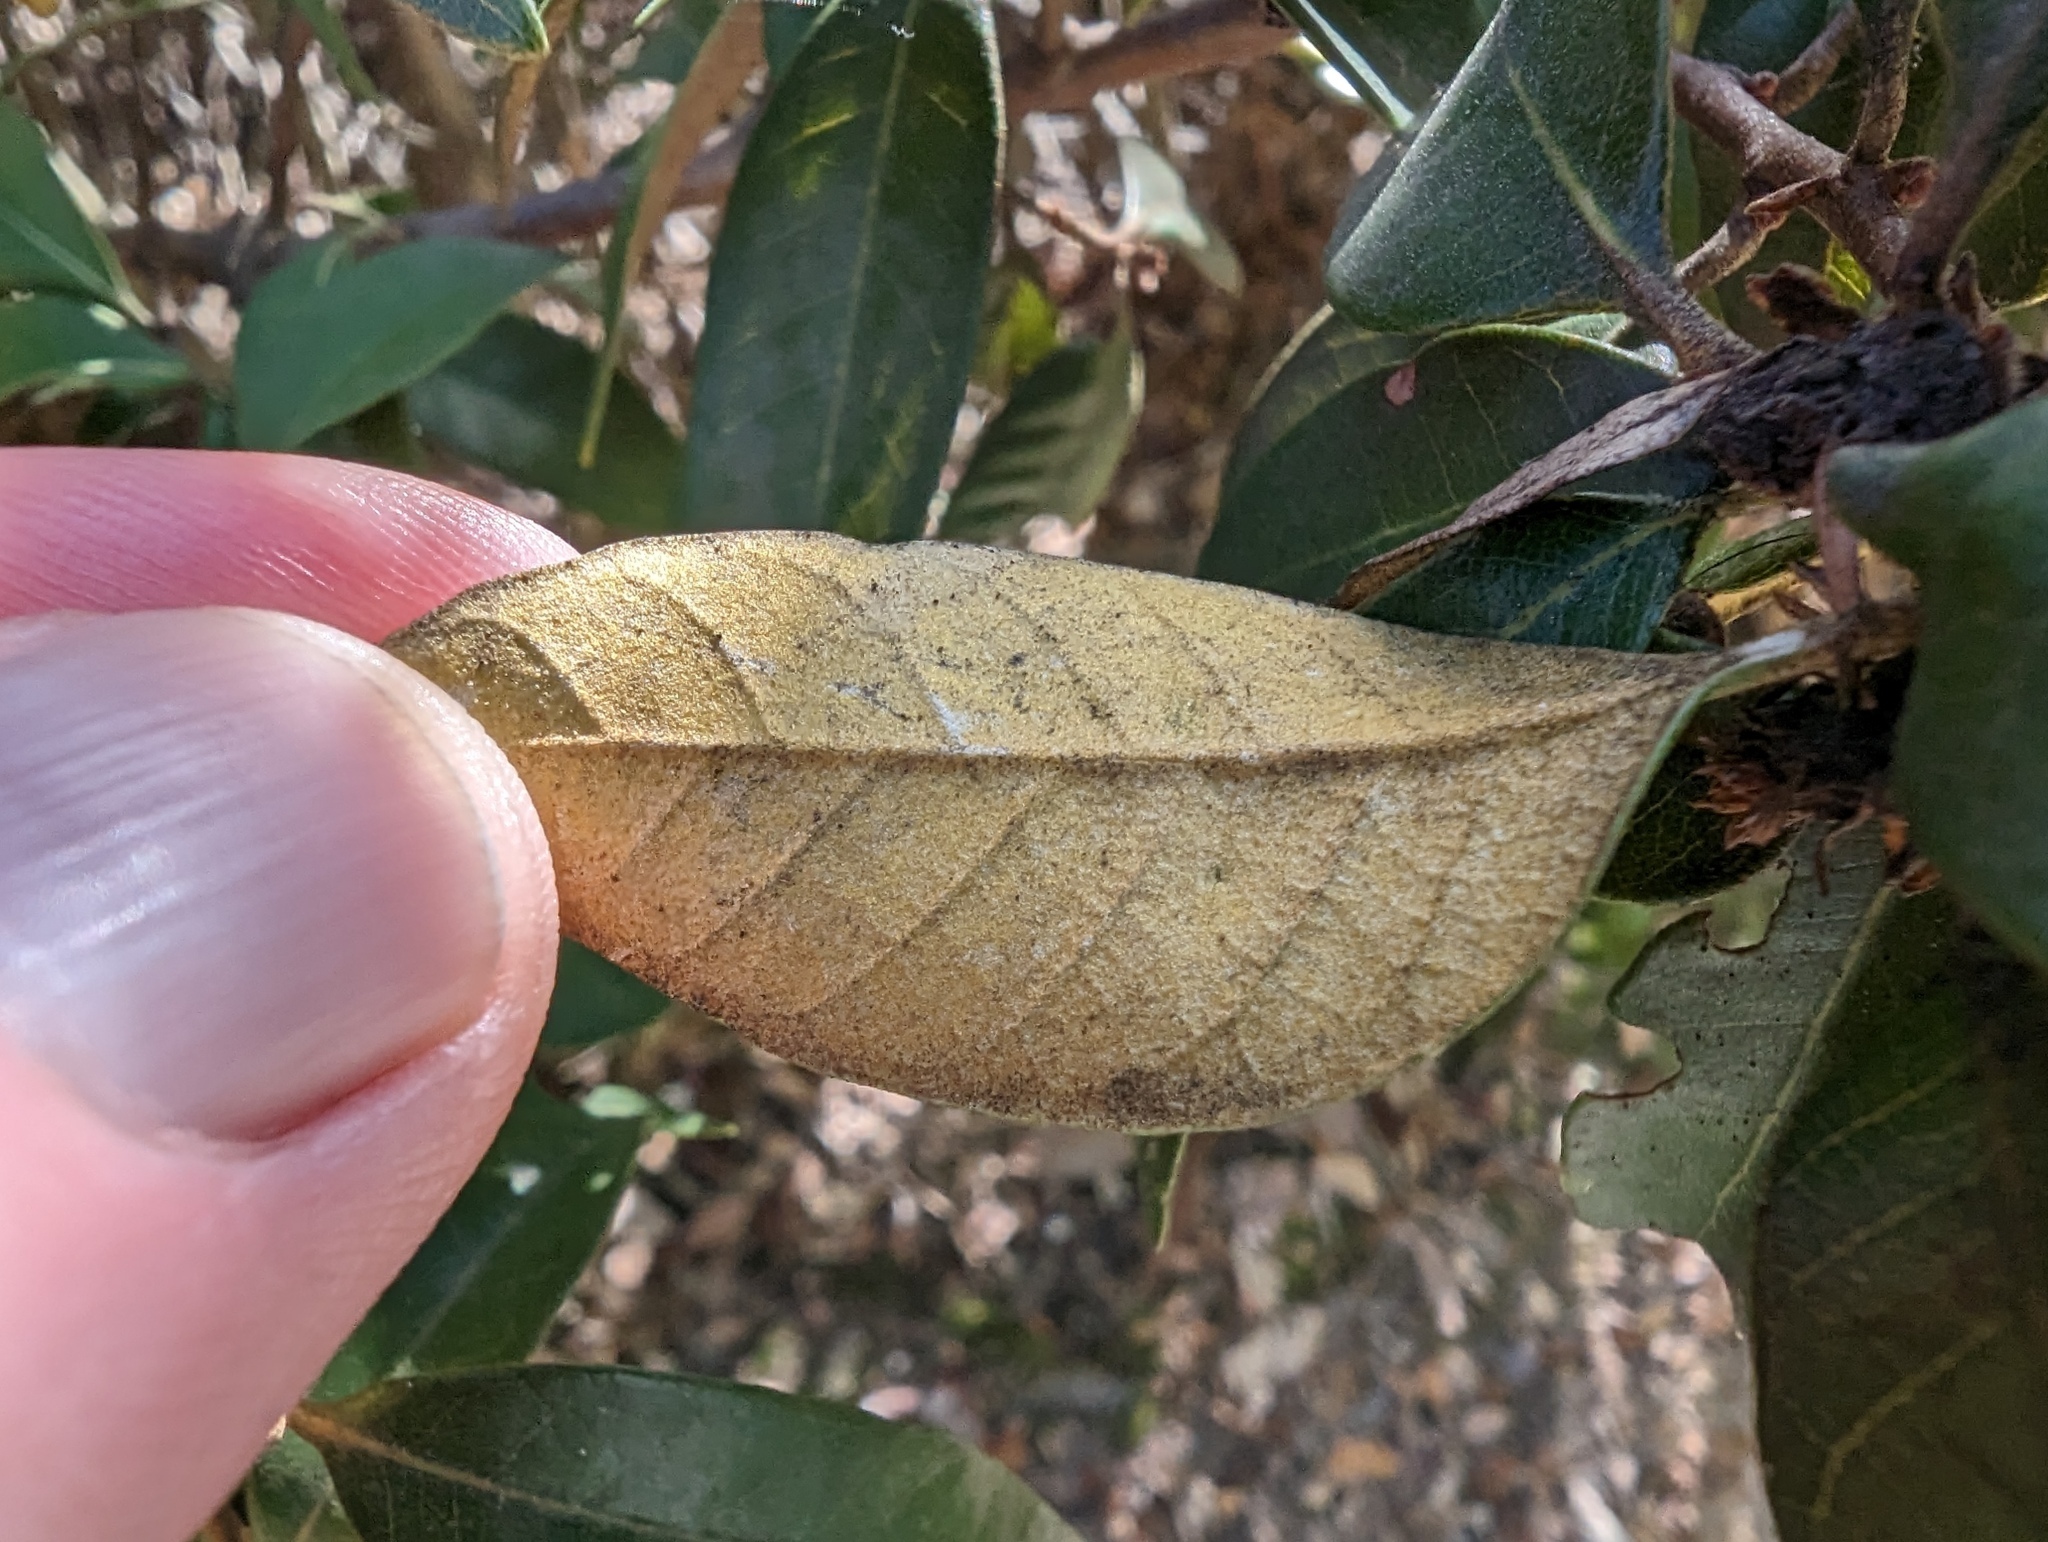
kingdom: Plantae
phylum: Tracheophyta
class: Magnoliopsida
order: Fagales
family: Fagaceae
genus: Chrysolepis
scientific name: Chrysolepis chrysophylla
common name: Giant chinquapin
